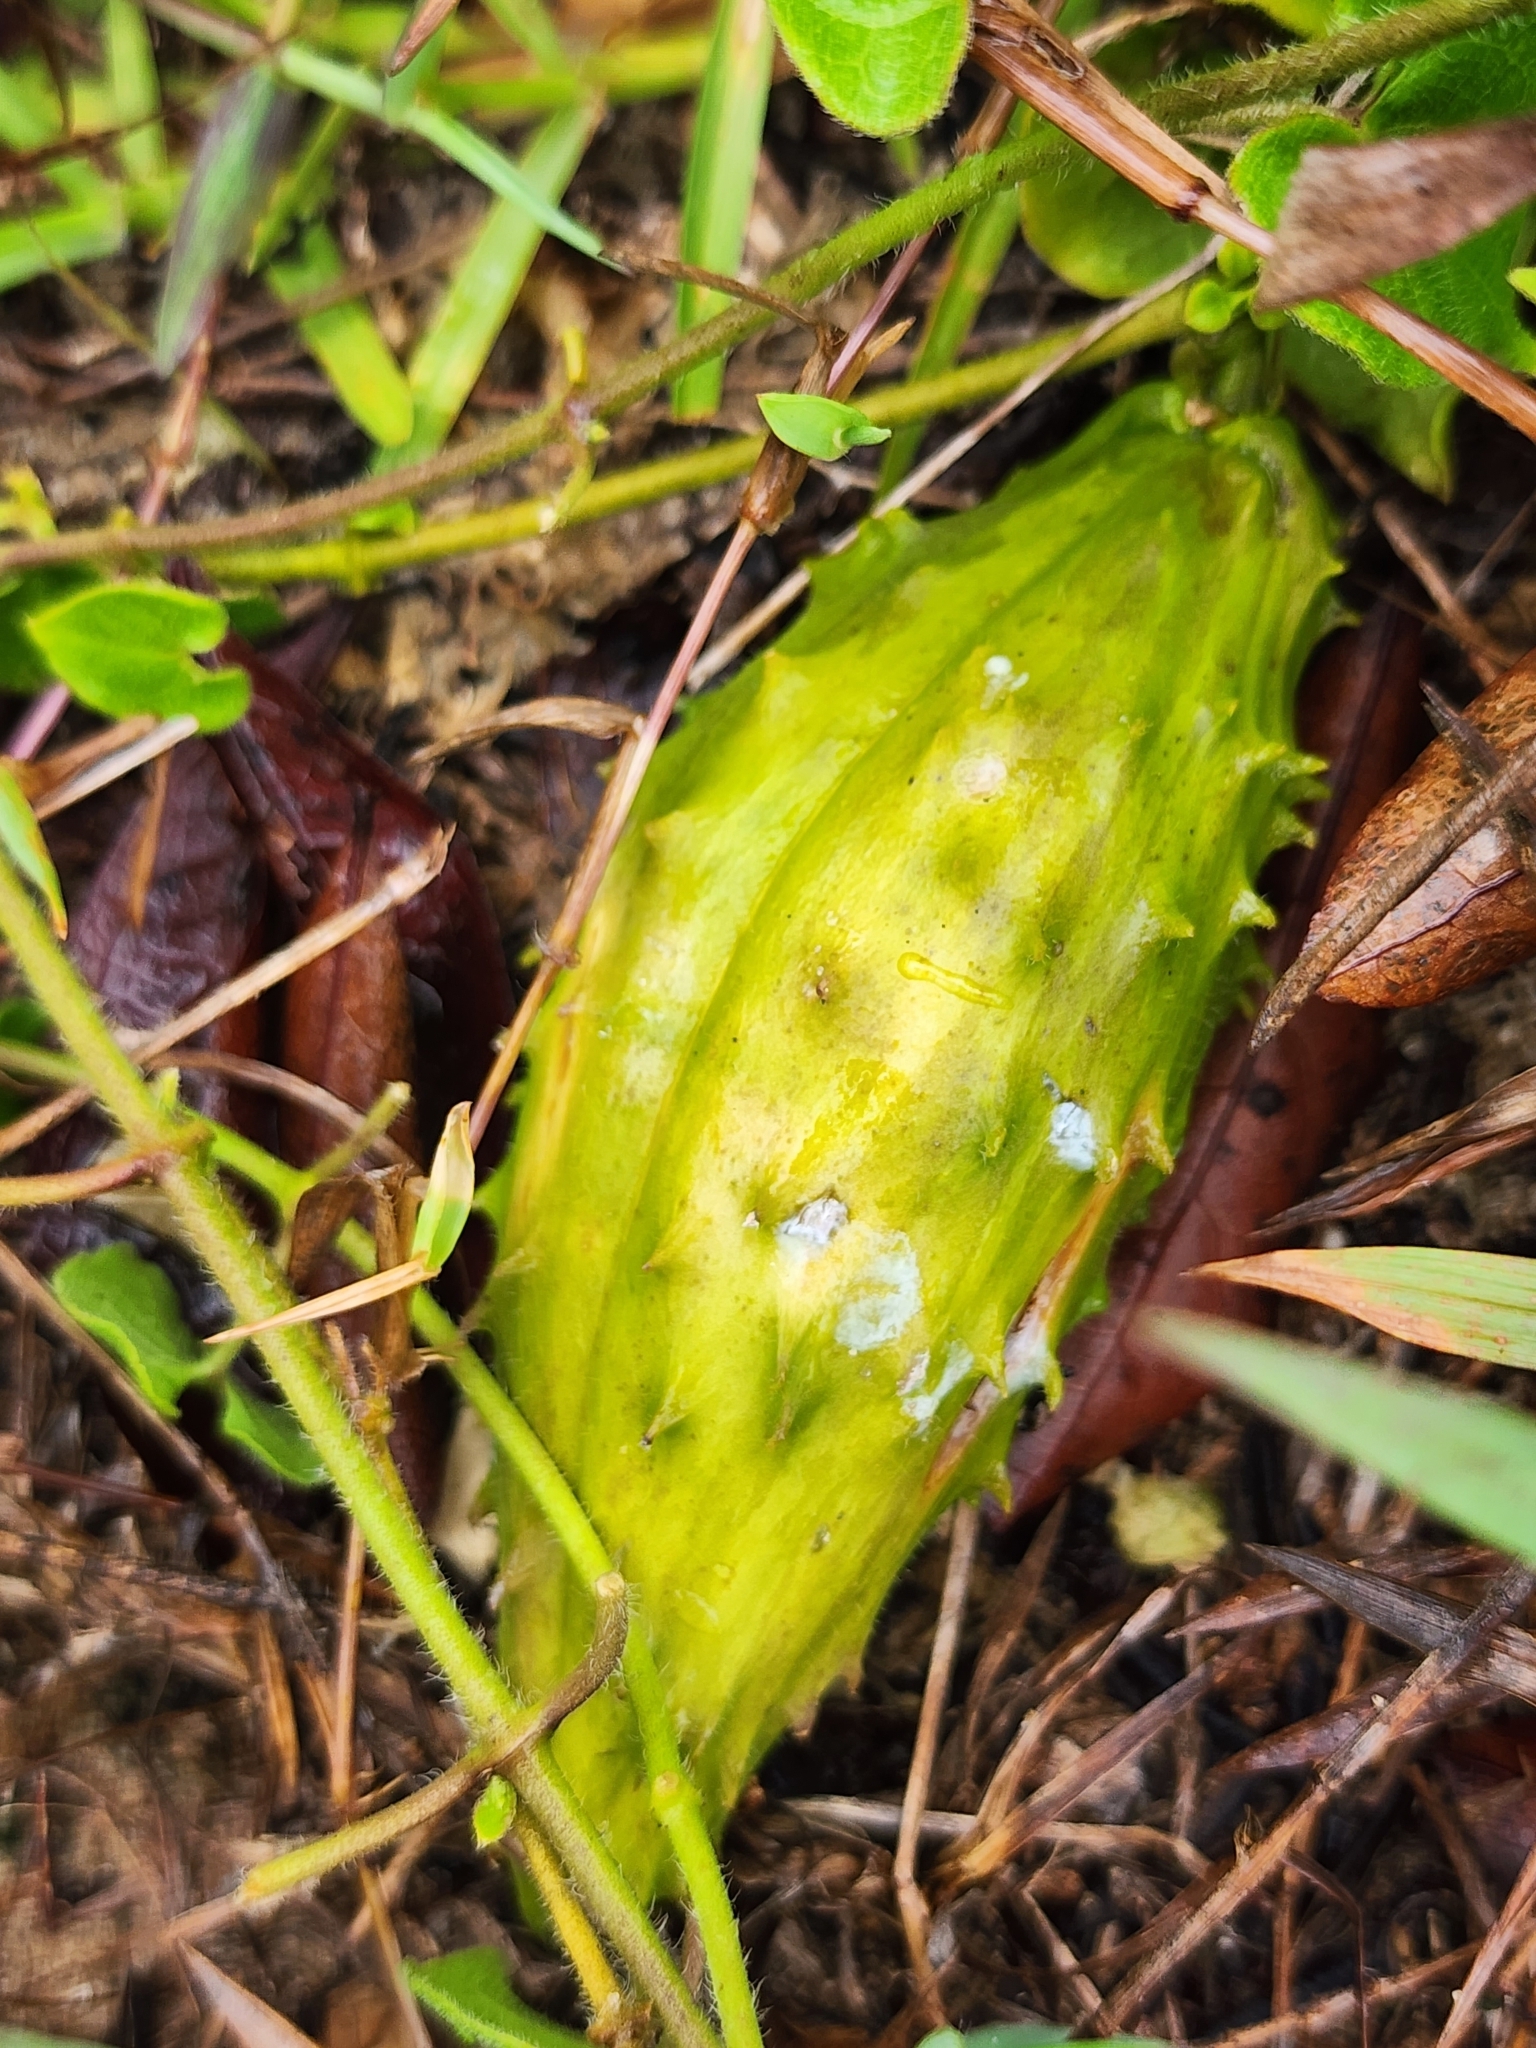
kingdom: Plantae
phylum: Tracheophyta
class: Magnoliopsida
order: Gentianales
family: Apocynaceae
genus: Chthamalia
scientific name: Chthamalia pubiflora
